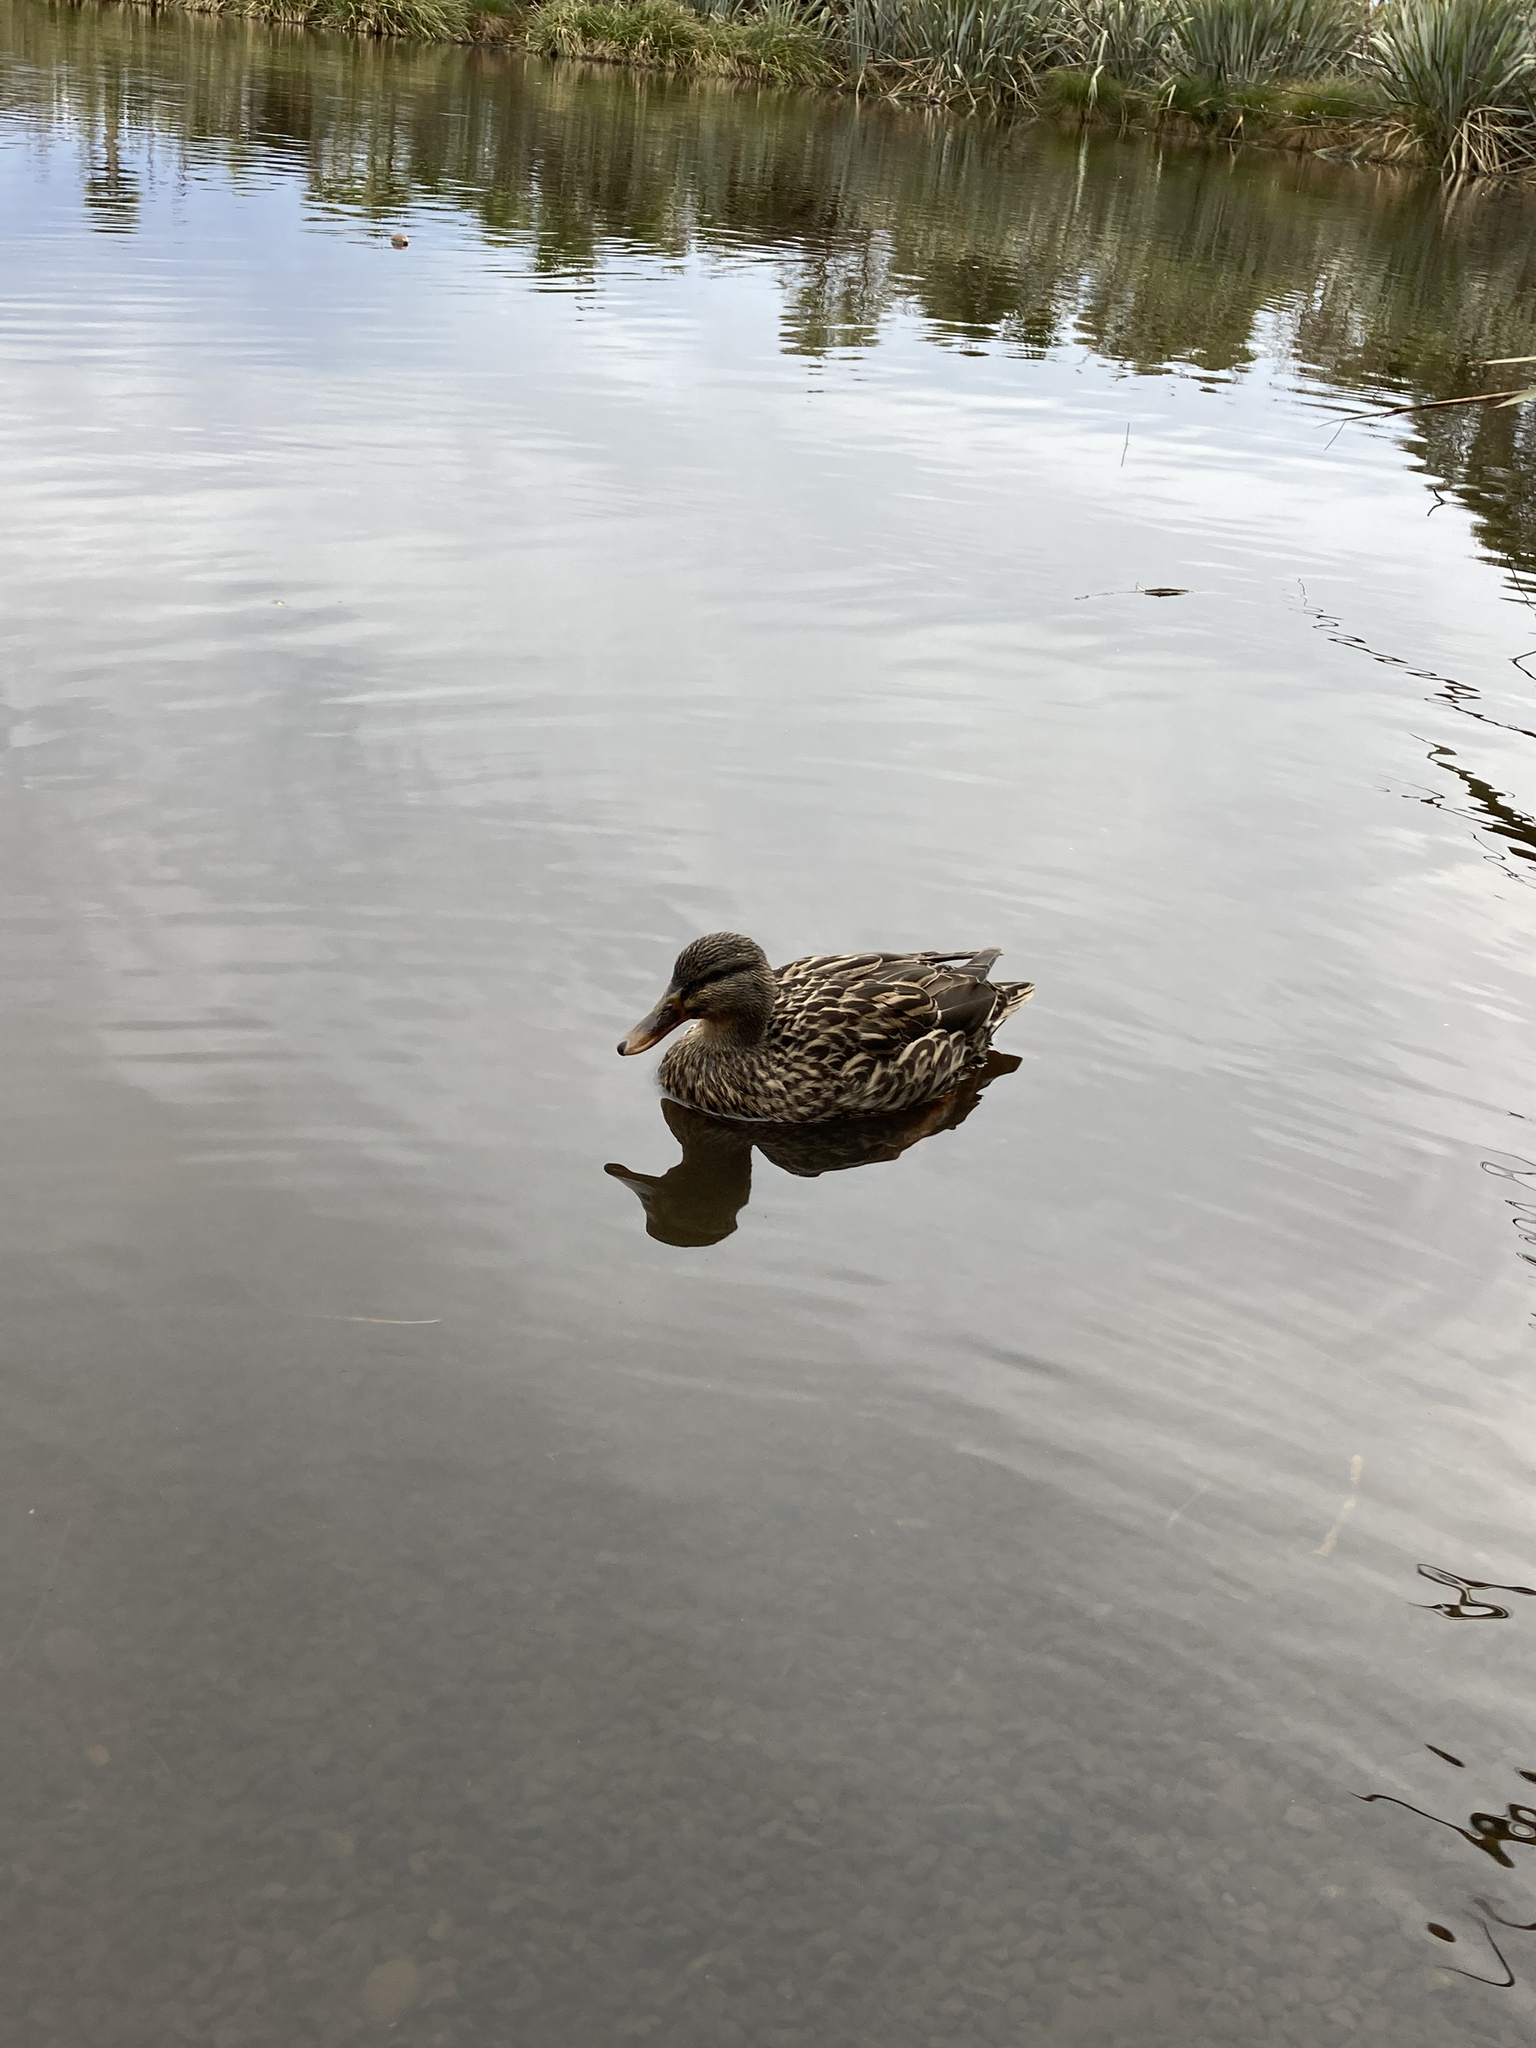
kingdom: Animalia
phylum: Chordata
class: Aves
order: Anseriformes
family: Anatidae
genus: Anas
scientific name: Anas platyrhynchos
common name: Mallard
